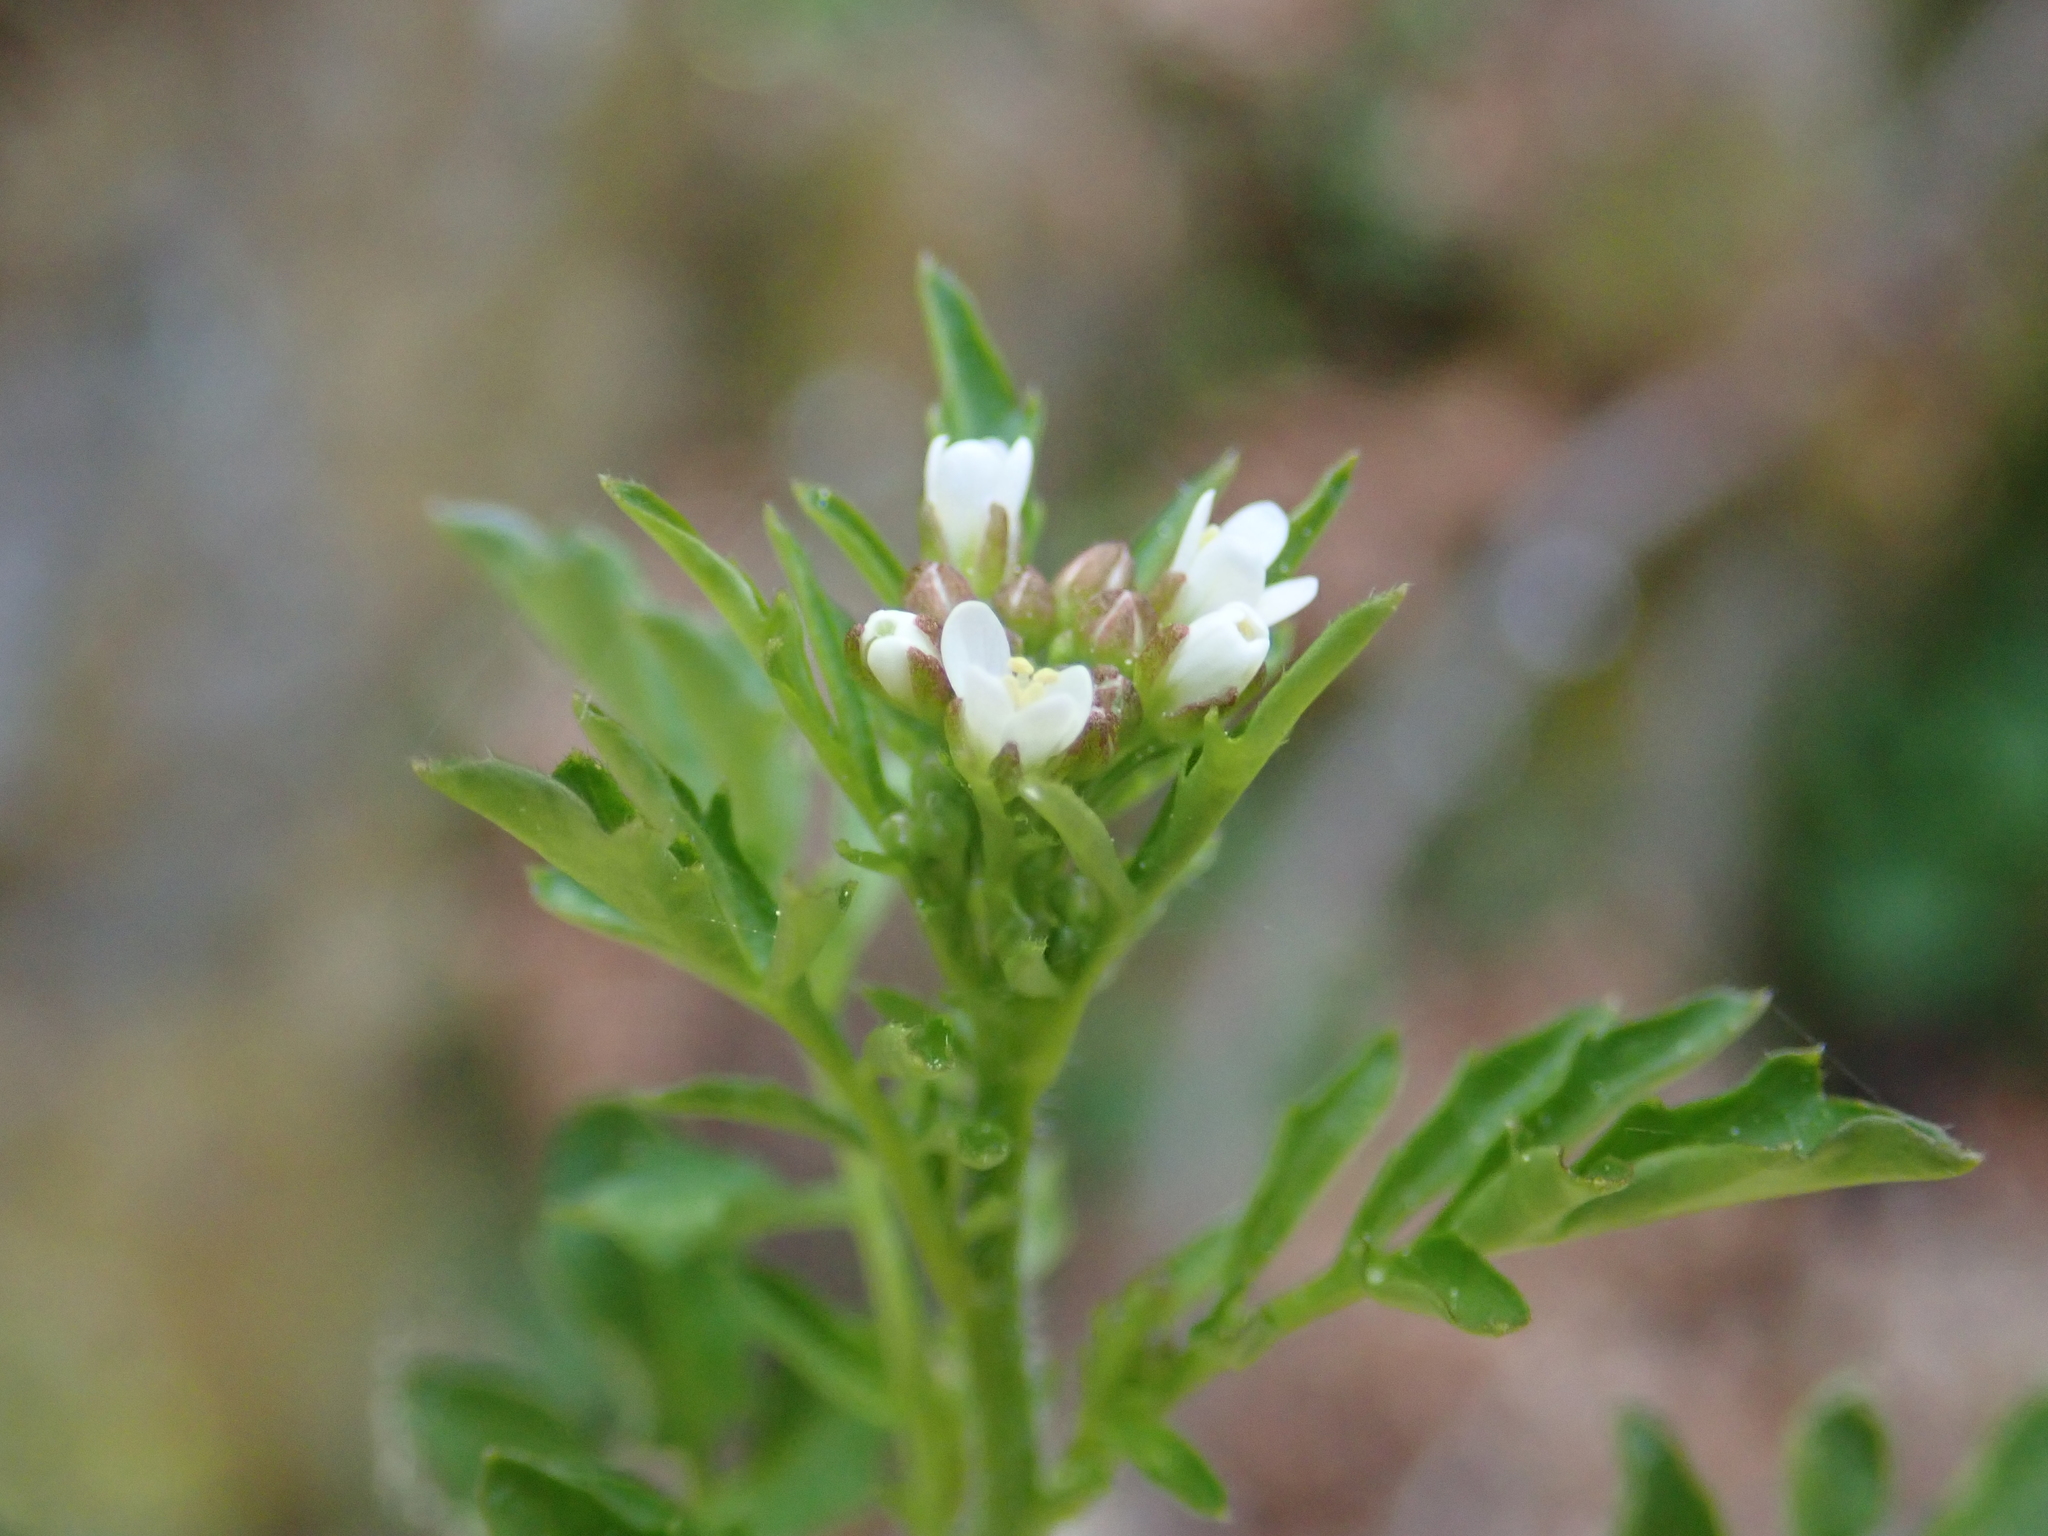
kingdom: Plantae
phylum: Tracheophyta
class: Magnoliopsida
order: Brassicales
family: Brassicaceae
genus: Cardamine
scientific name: Cardamine flexuosa
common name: Woodland bittercress
